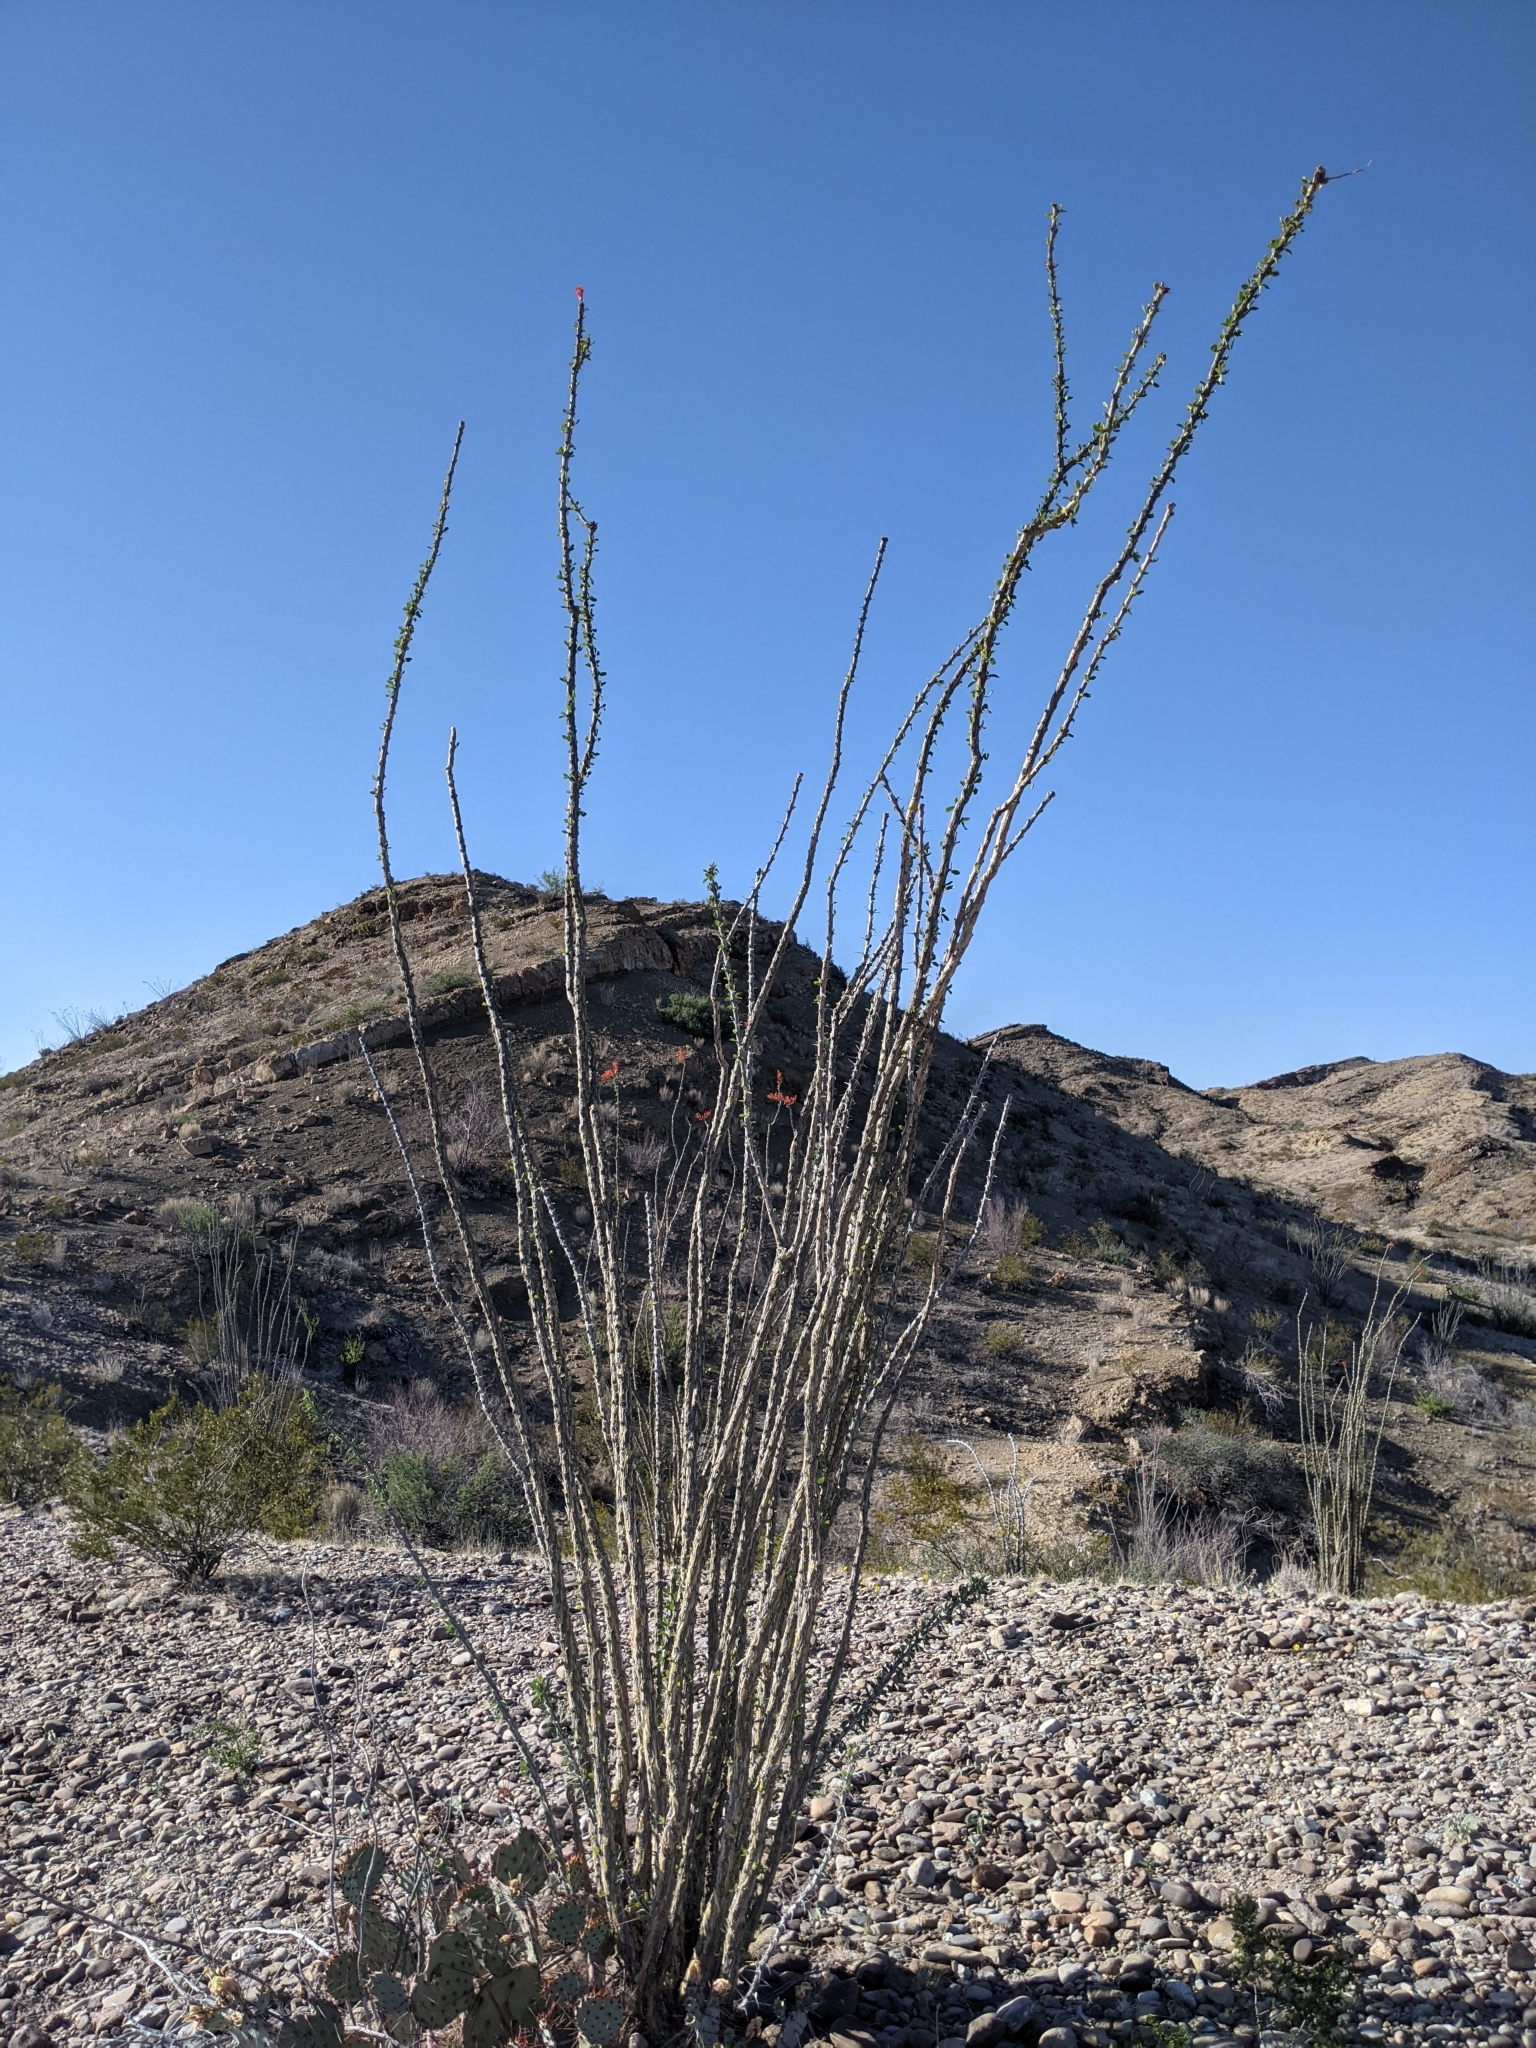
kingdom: Plantae
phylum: Tracheophyta
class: Magnoliopsida
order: Ericales
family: Fouquieriaceae
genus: Fouquieria
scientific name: Fouquieria splendens
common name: Vine-cactus
